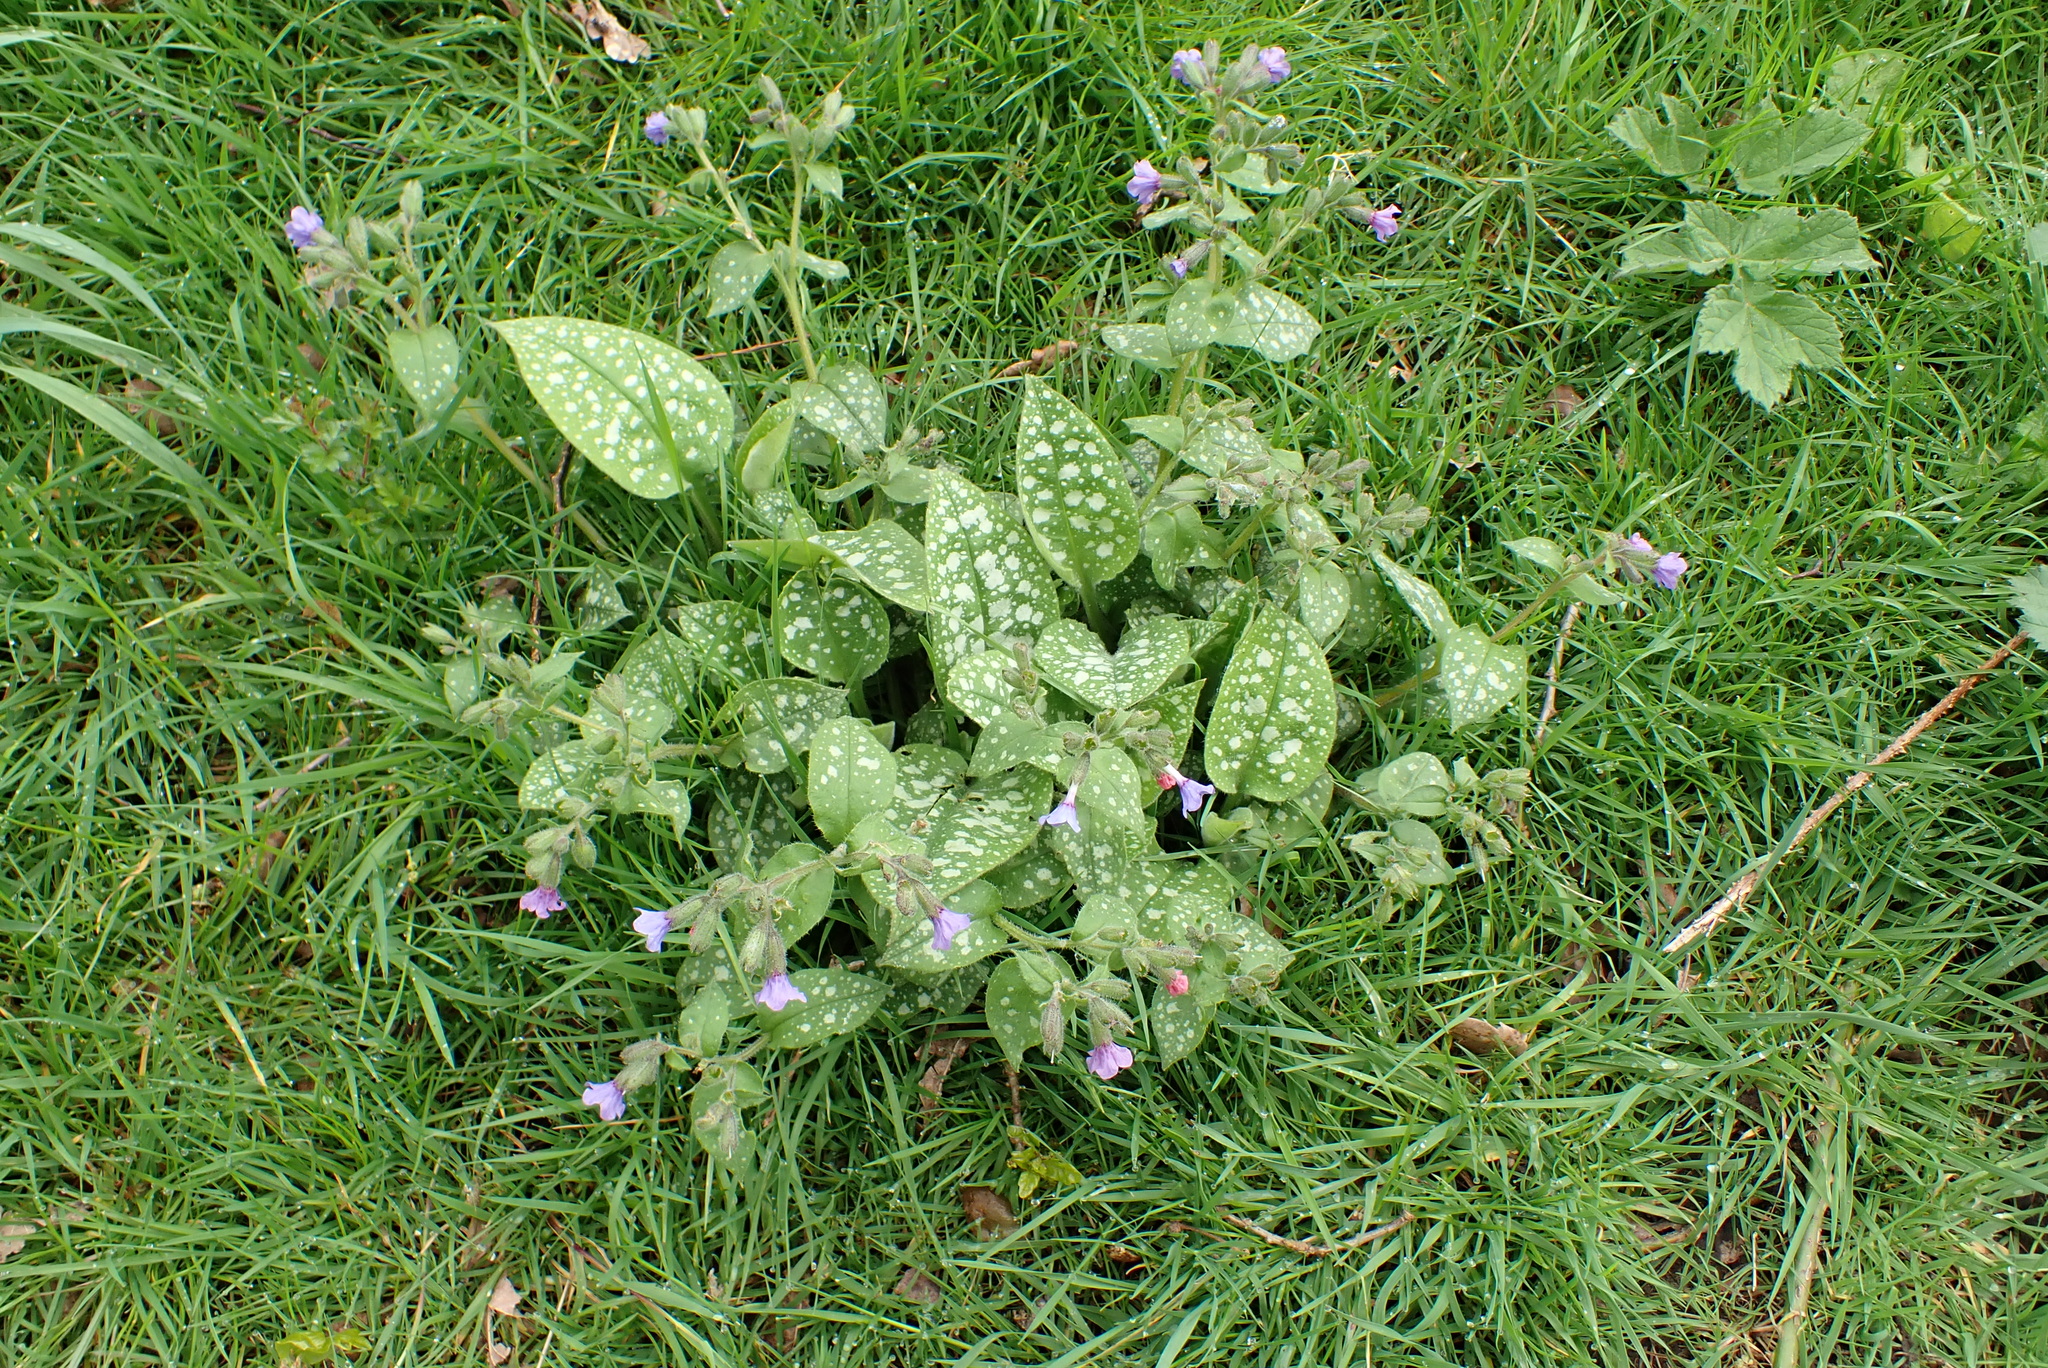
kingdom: Plantae
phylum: Tracheophyta
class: Magnoliopsida
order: Boraginales
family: Boraginaceae
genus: Pulmonaria
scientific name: Pulmonaria officinalis
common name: Lungwort
